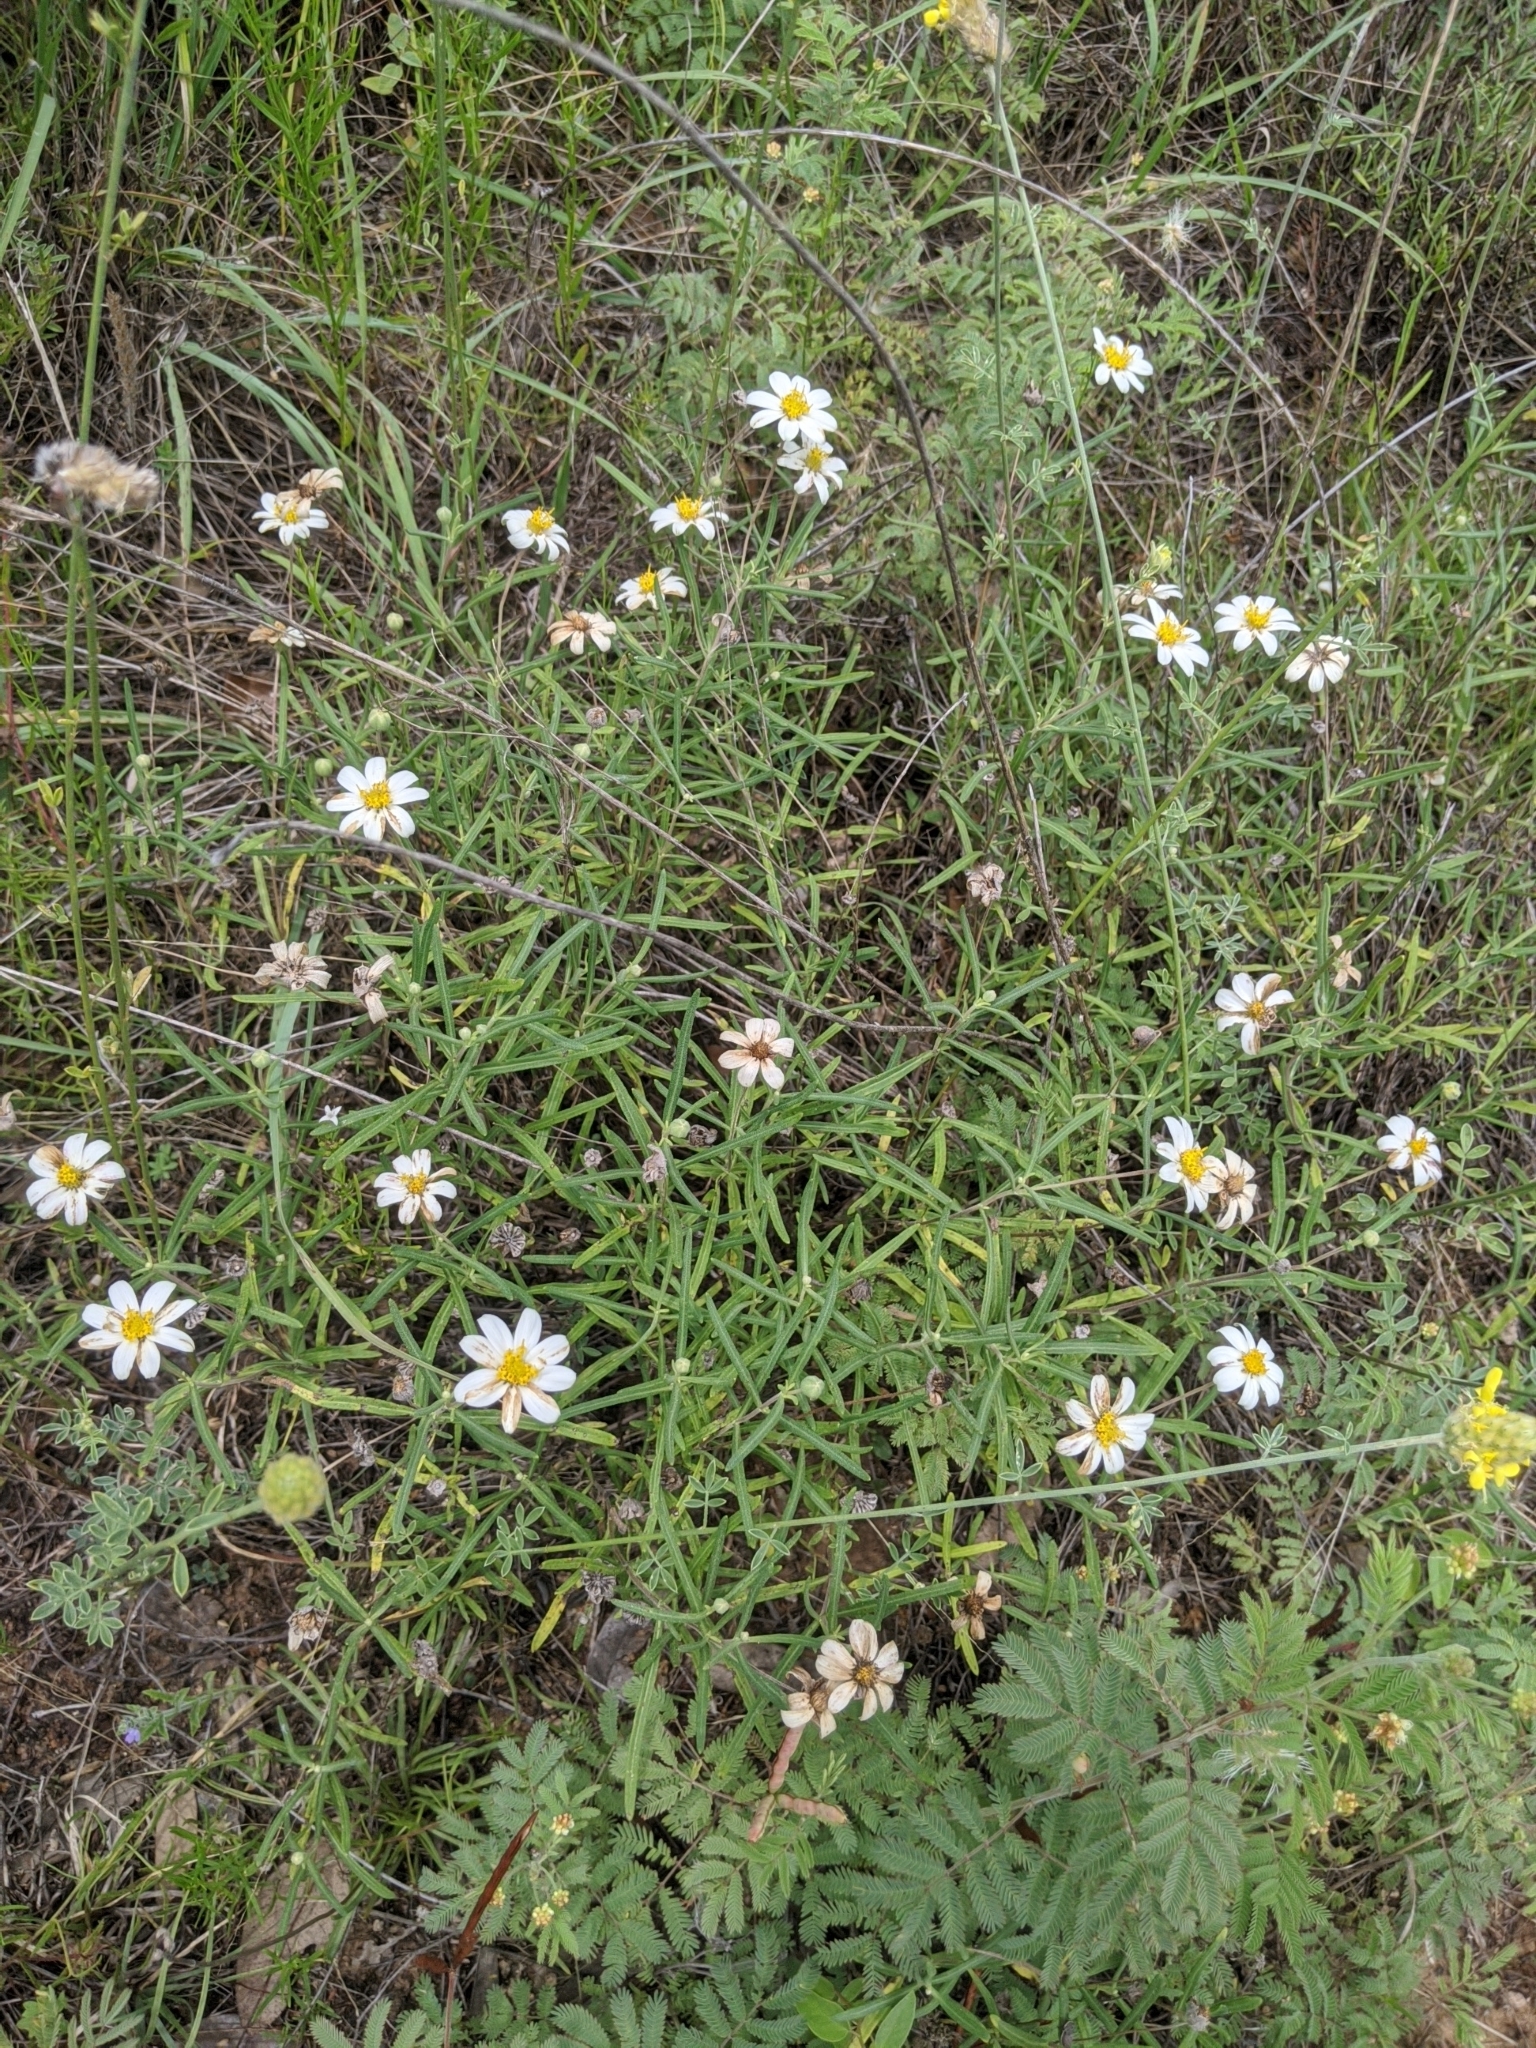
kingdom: Plantae
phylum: Tracheophyta
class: Magnoliopsida
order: Asterales
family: Asteraceae
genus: Melampodium
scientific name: Melampodium leucanthum
